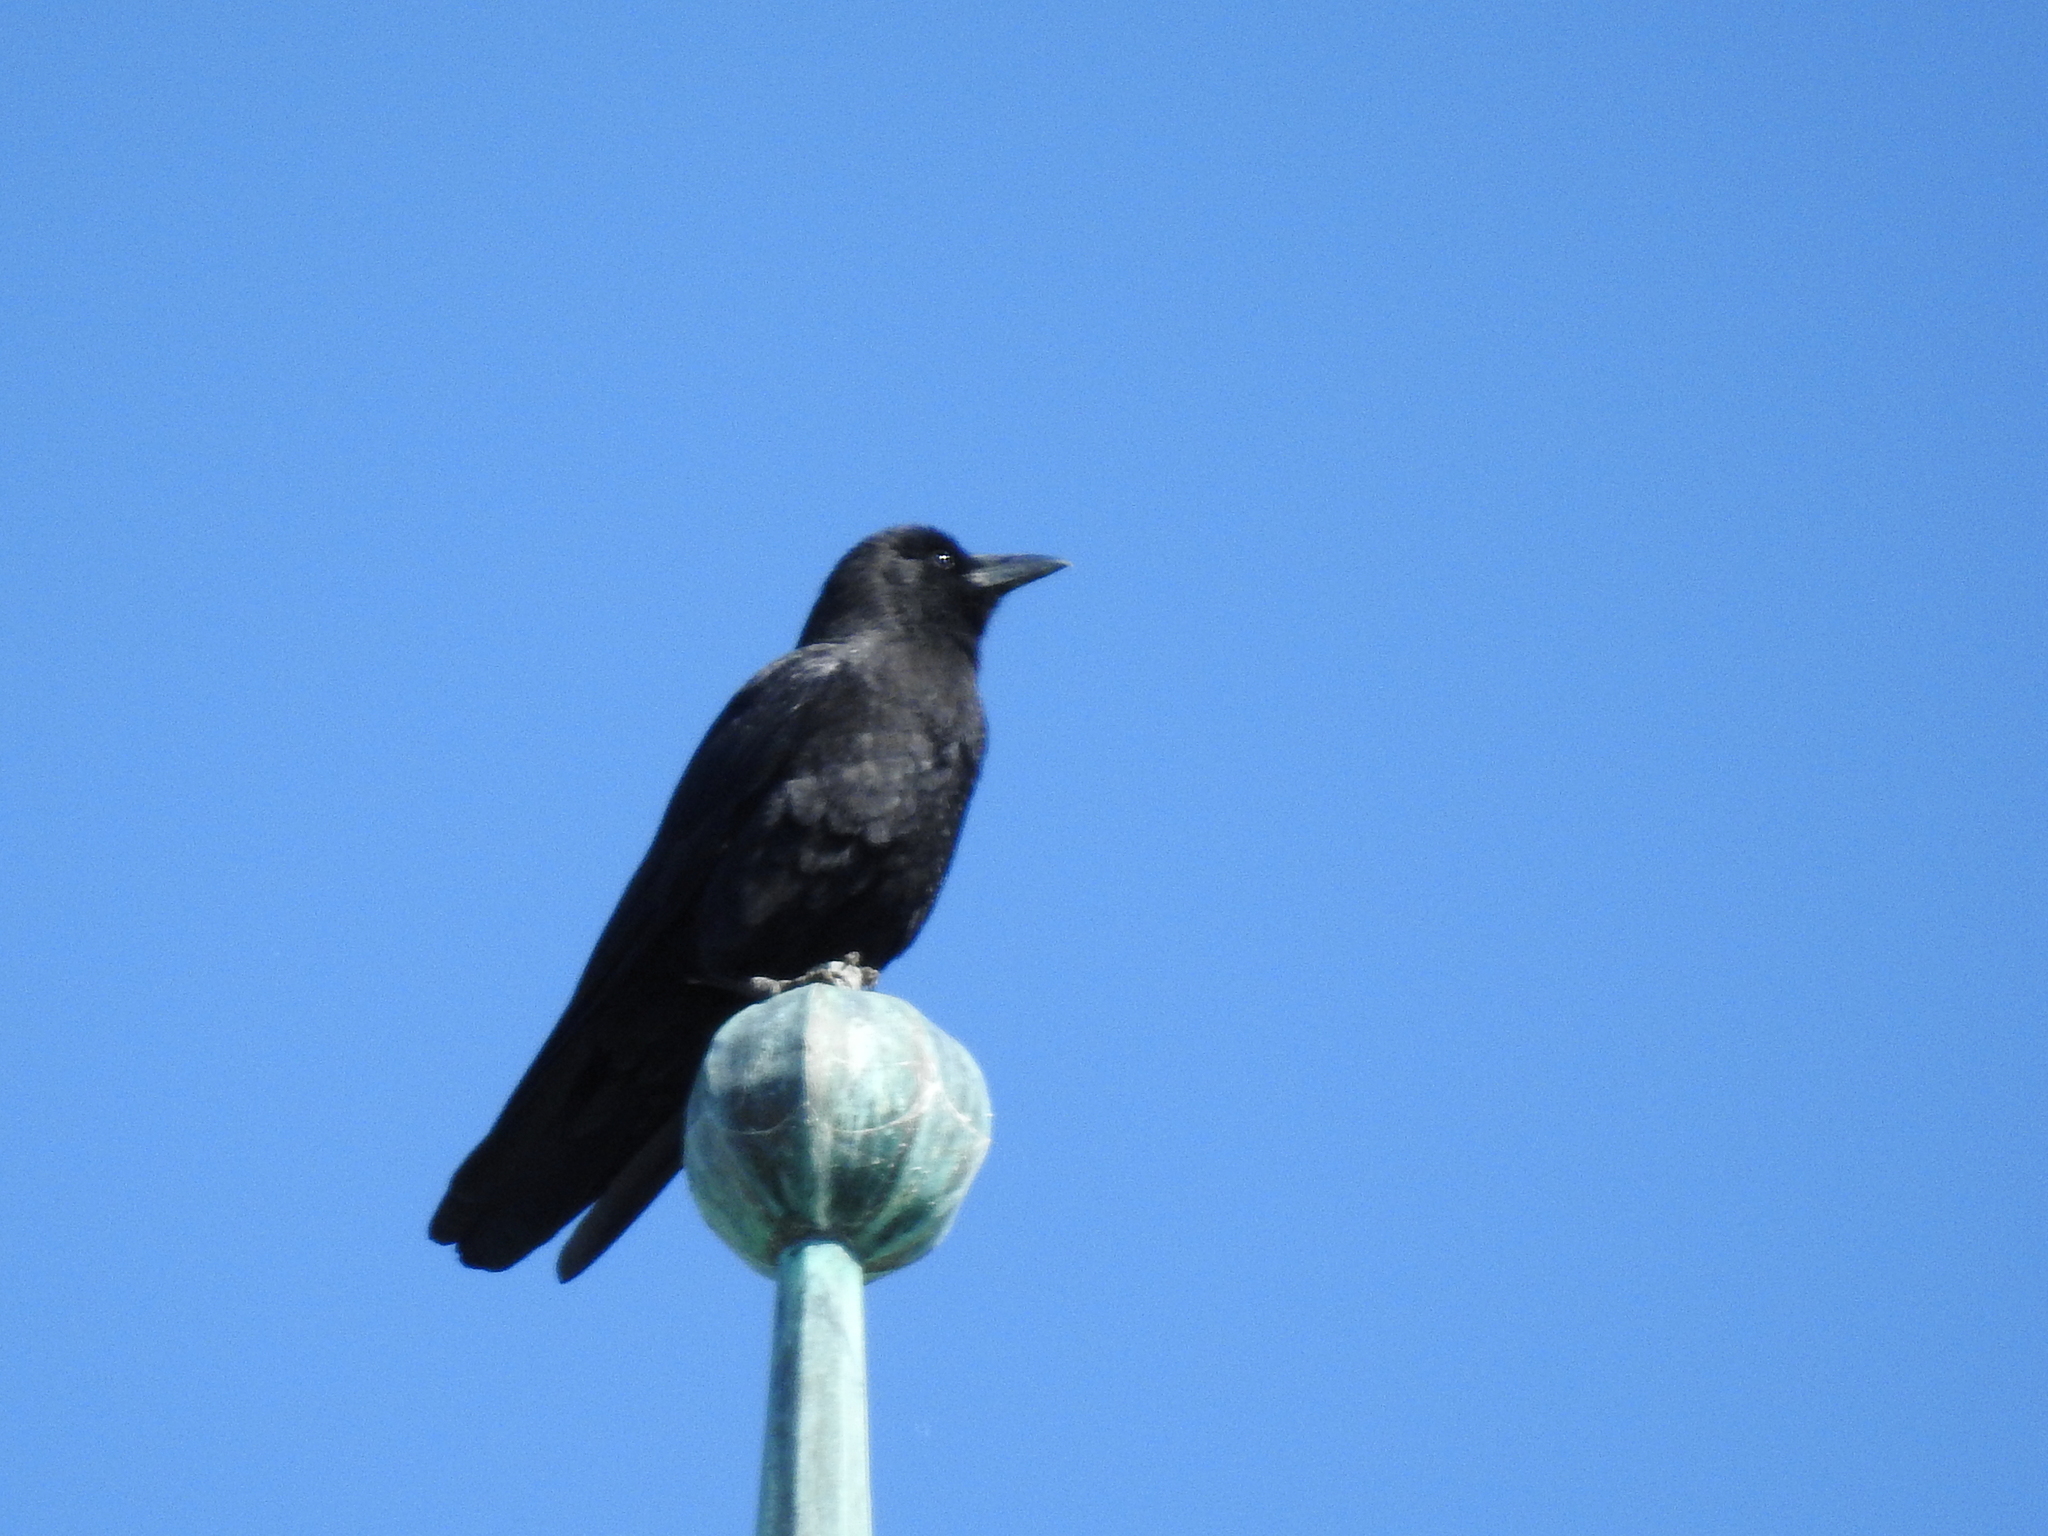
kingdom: Animalia
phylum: Chordata
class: Aves
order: Passeriformes
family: Corvidae
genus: Corvus
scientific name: Corvus brachyrhynchos
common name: American crow
